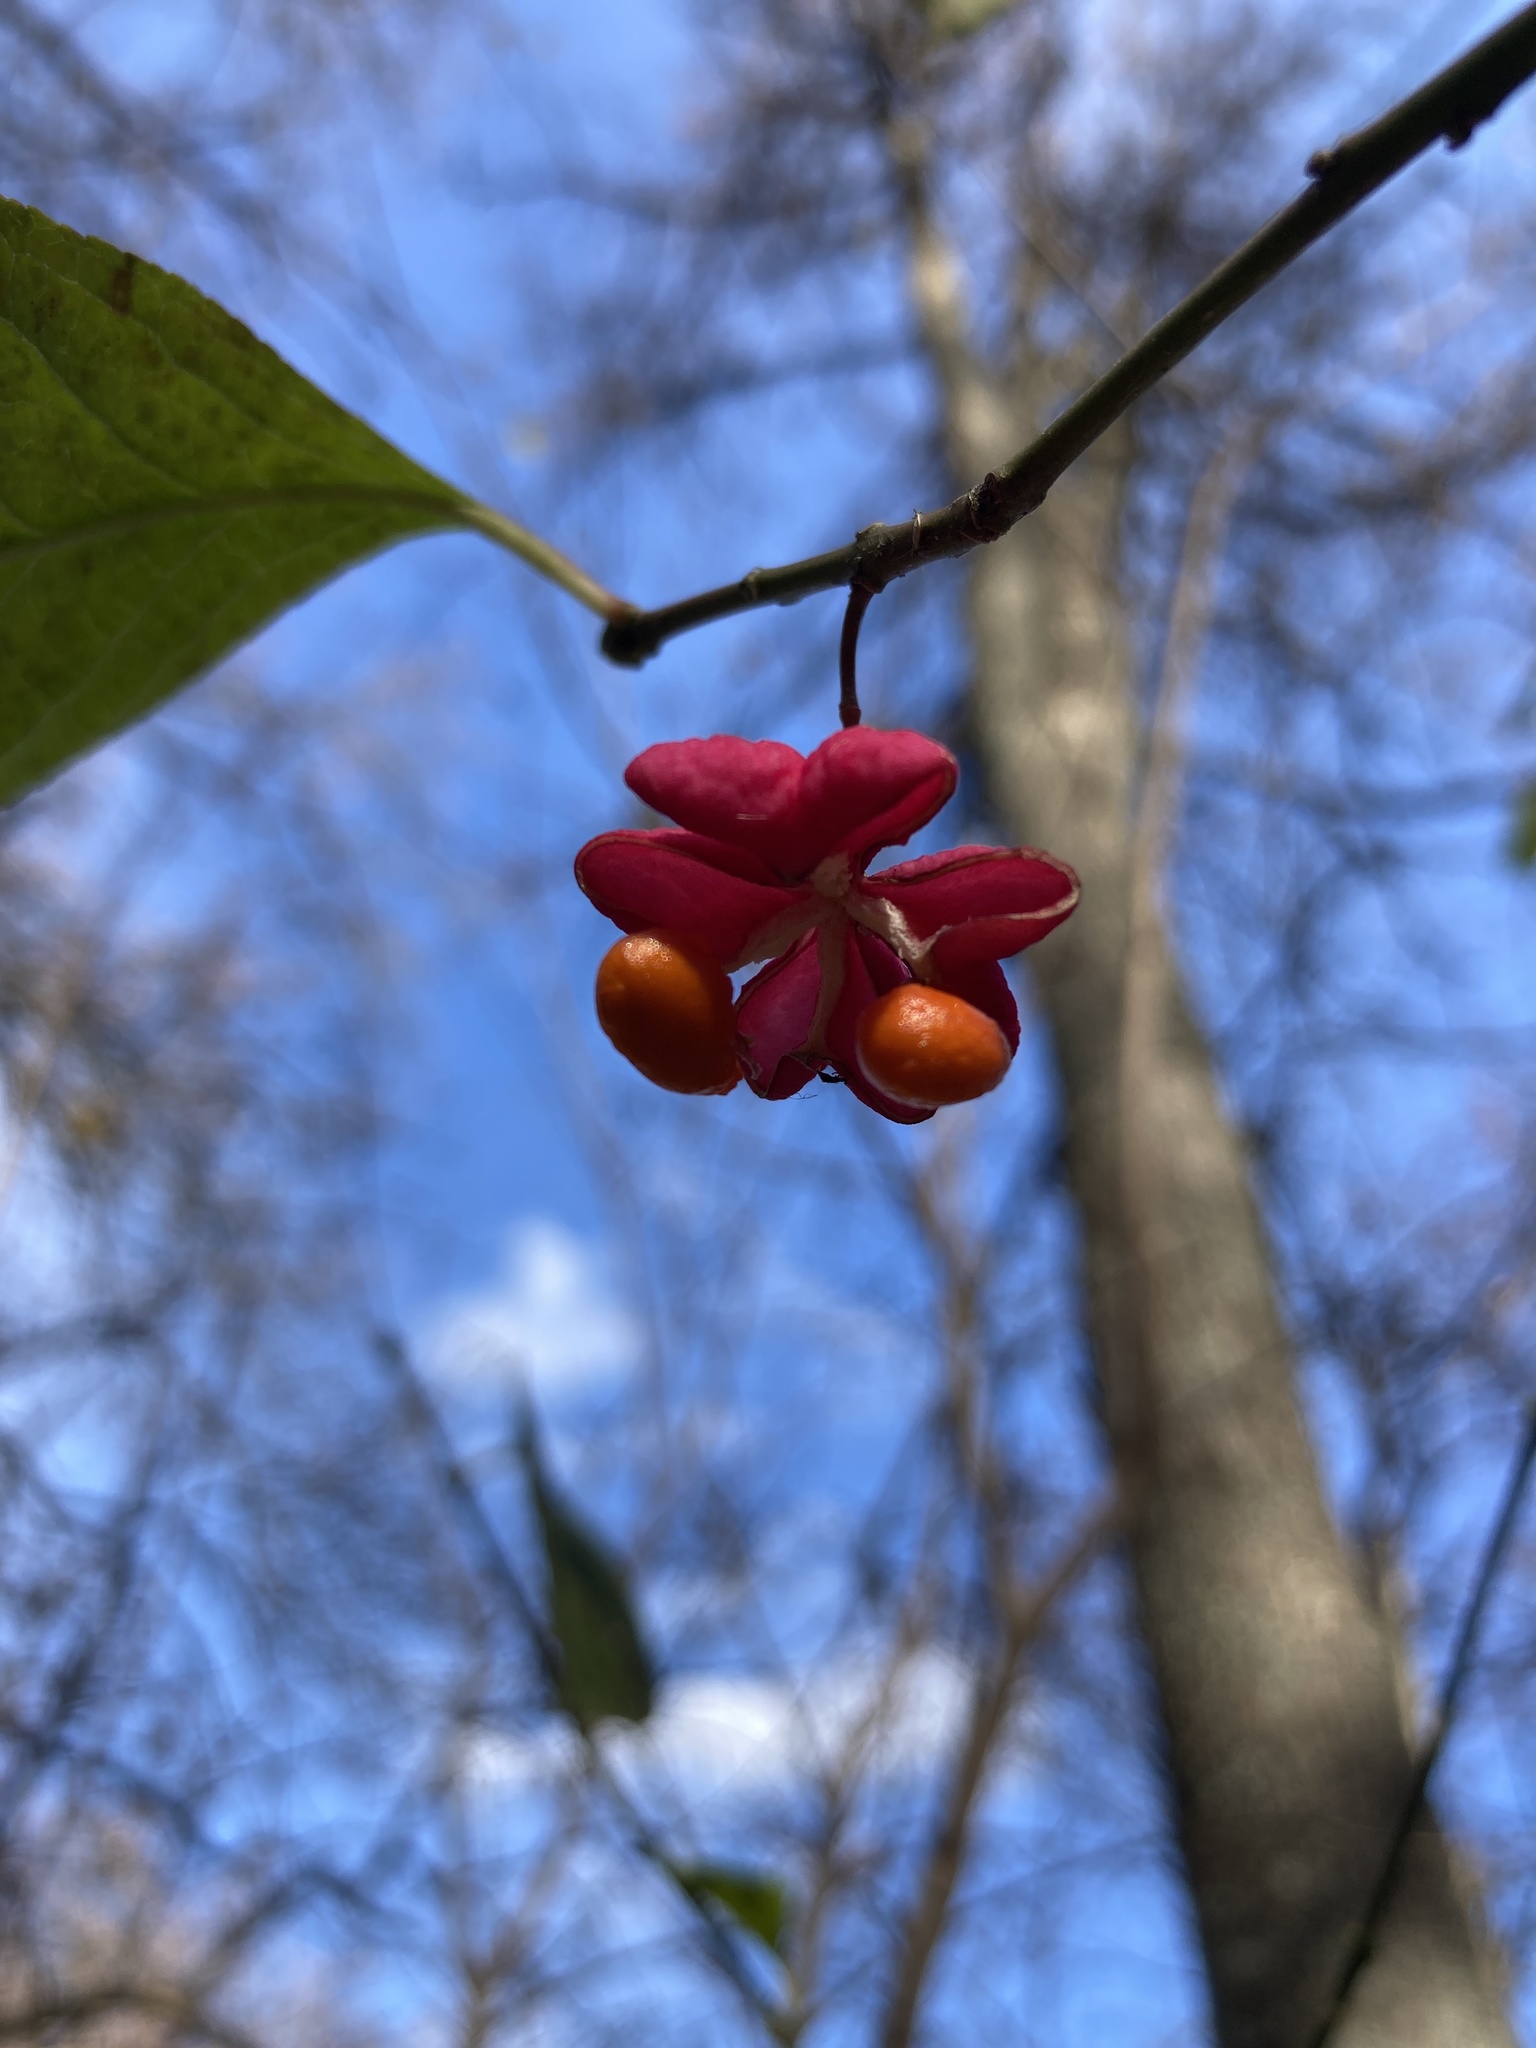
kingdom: Plantae
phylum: Tracheophyta
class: Magnoliopsida
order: Celastrales
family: Celastraceae
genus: Euonymus
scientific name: Euonymus europaeus
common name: Spindle
